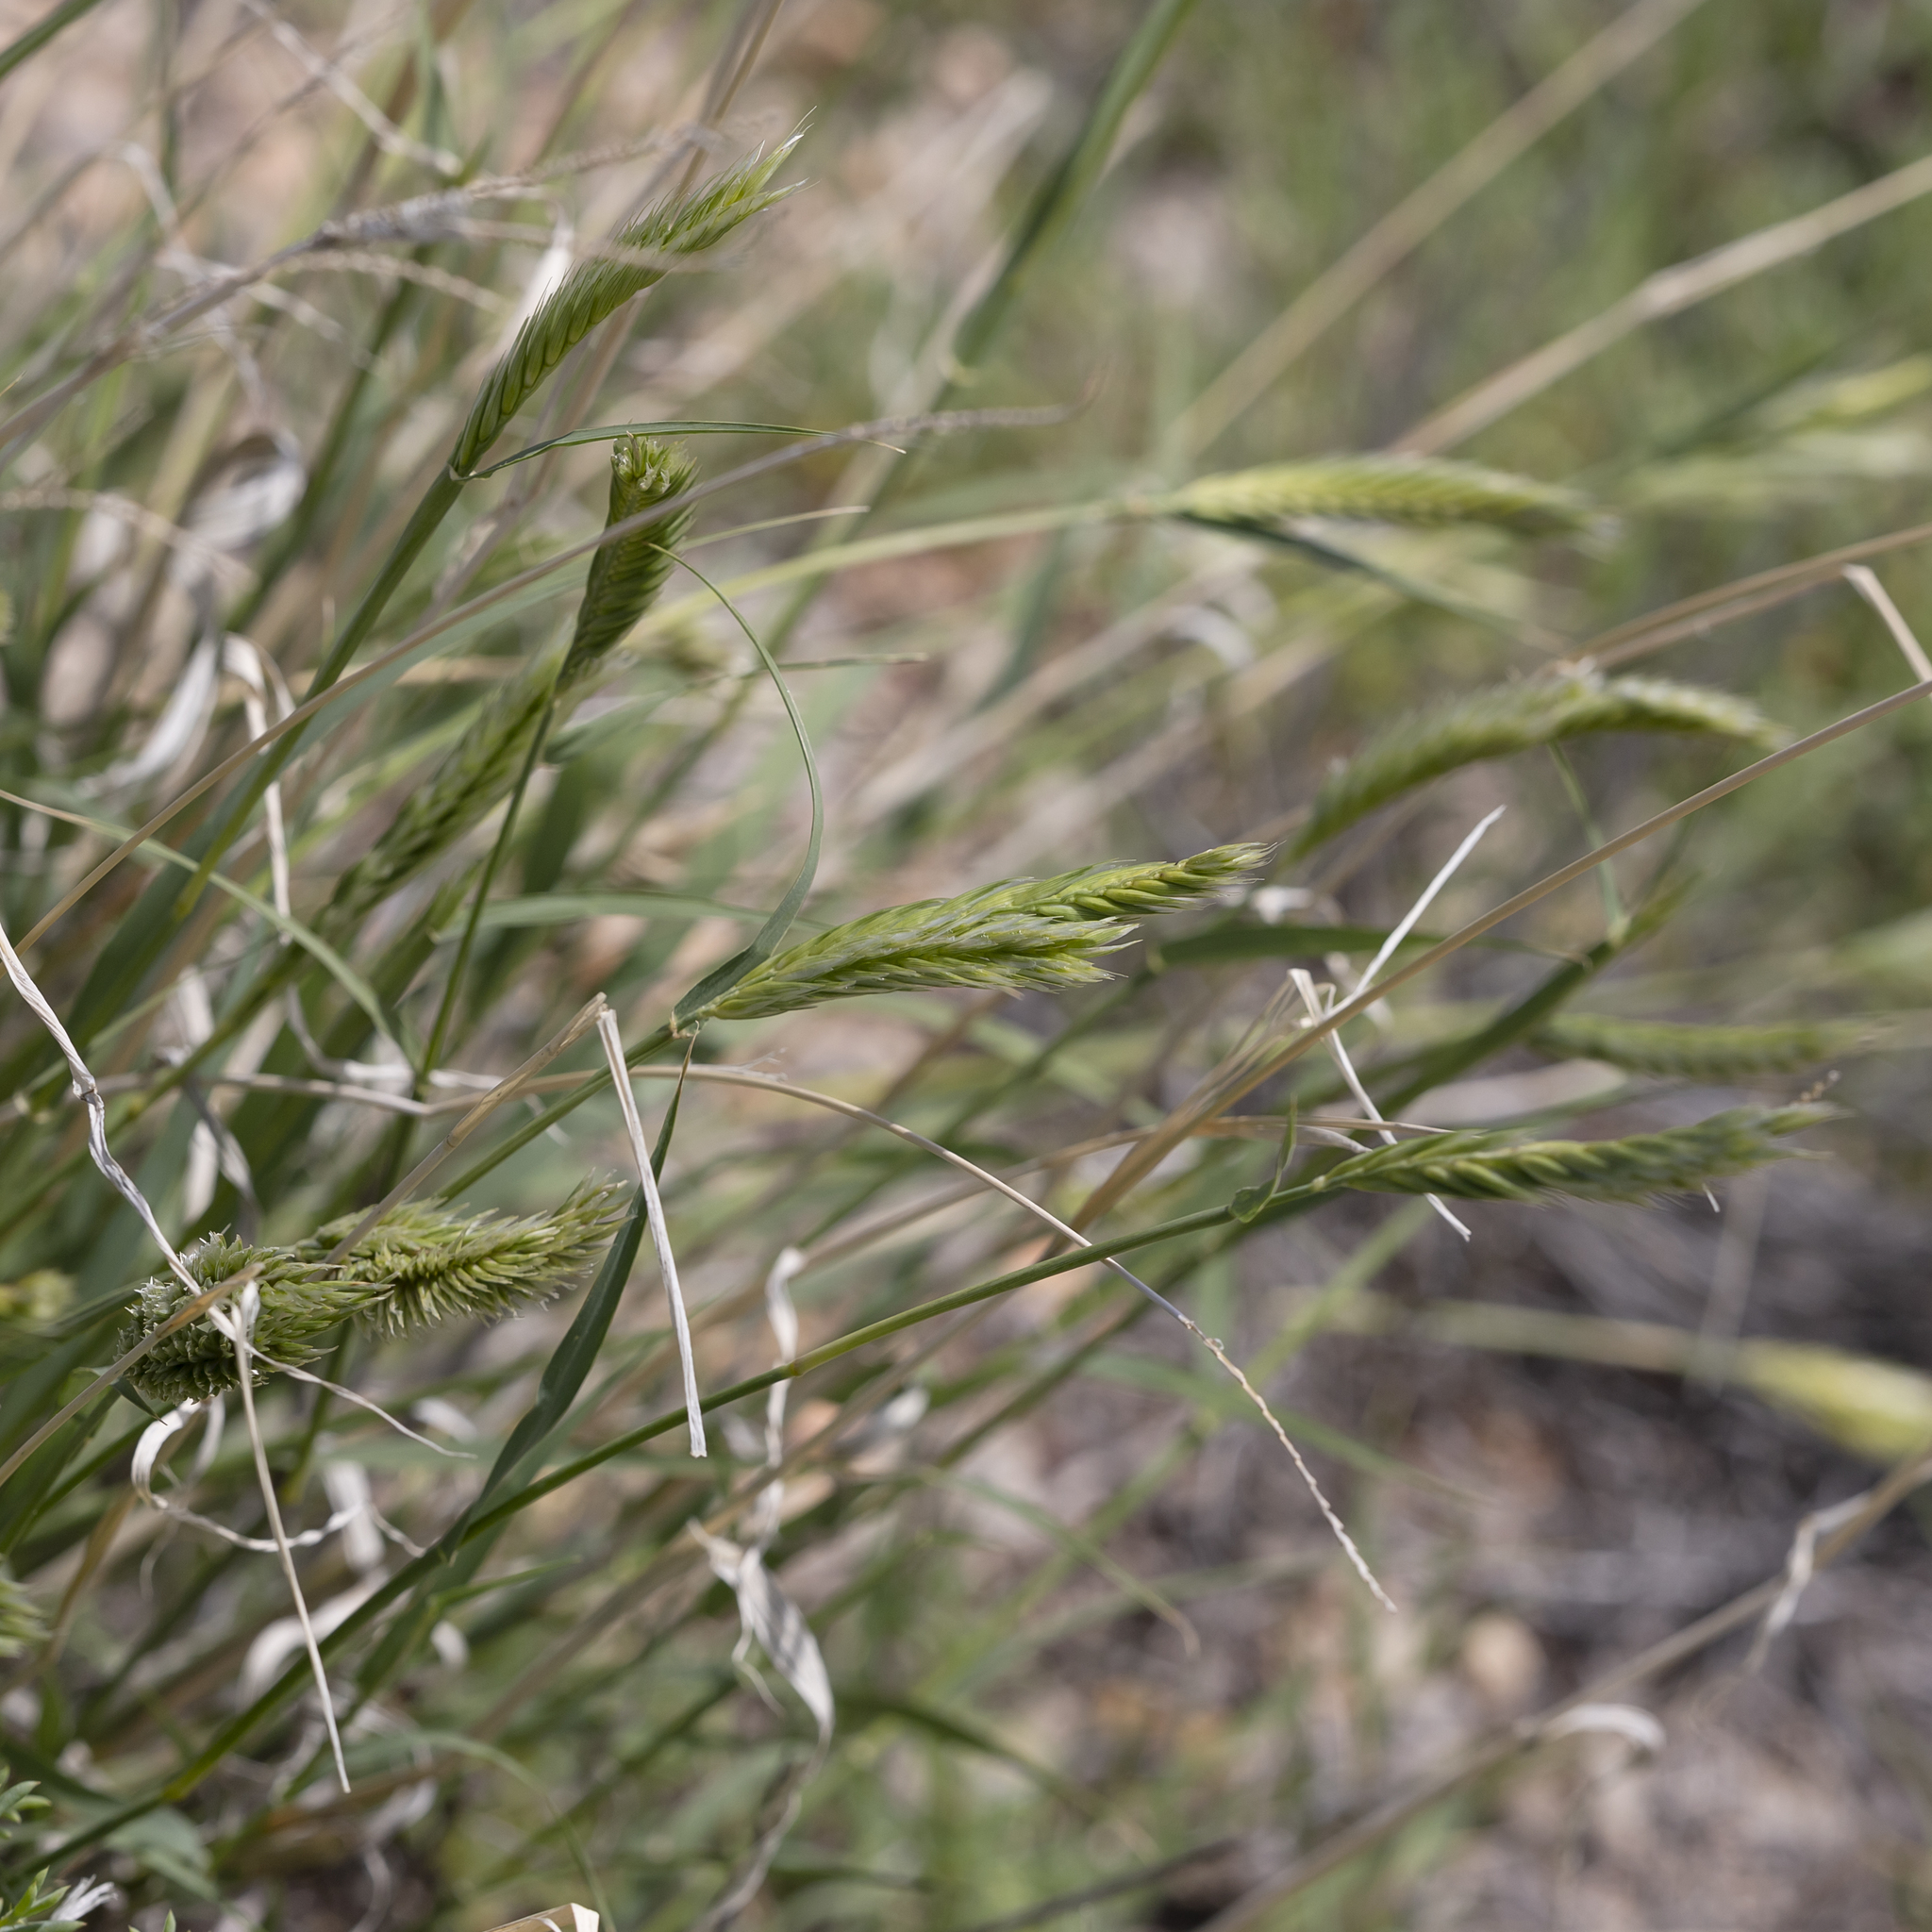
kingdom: Plantae
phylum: Tracheophyta
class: Liliopsida
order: Poales
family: Poaceae
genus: Astrebla
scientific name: Astrebla pectinata
